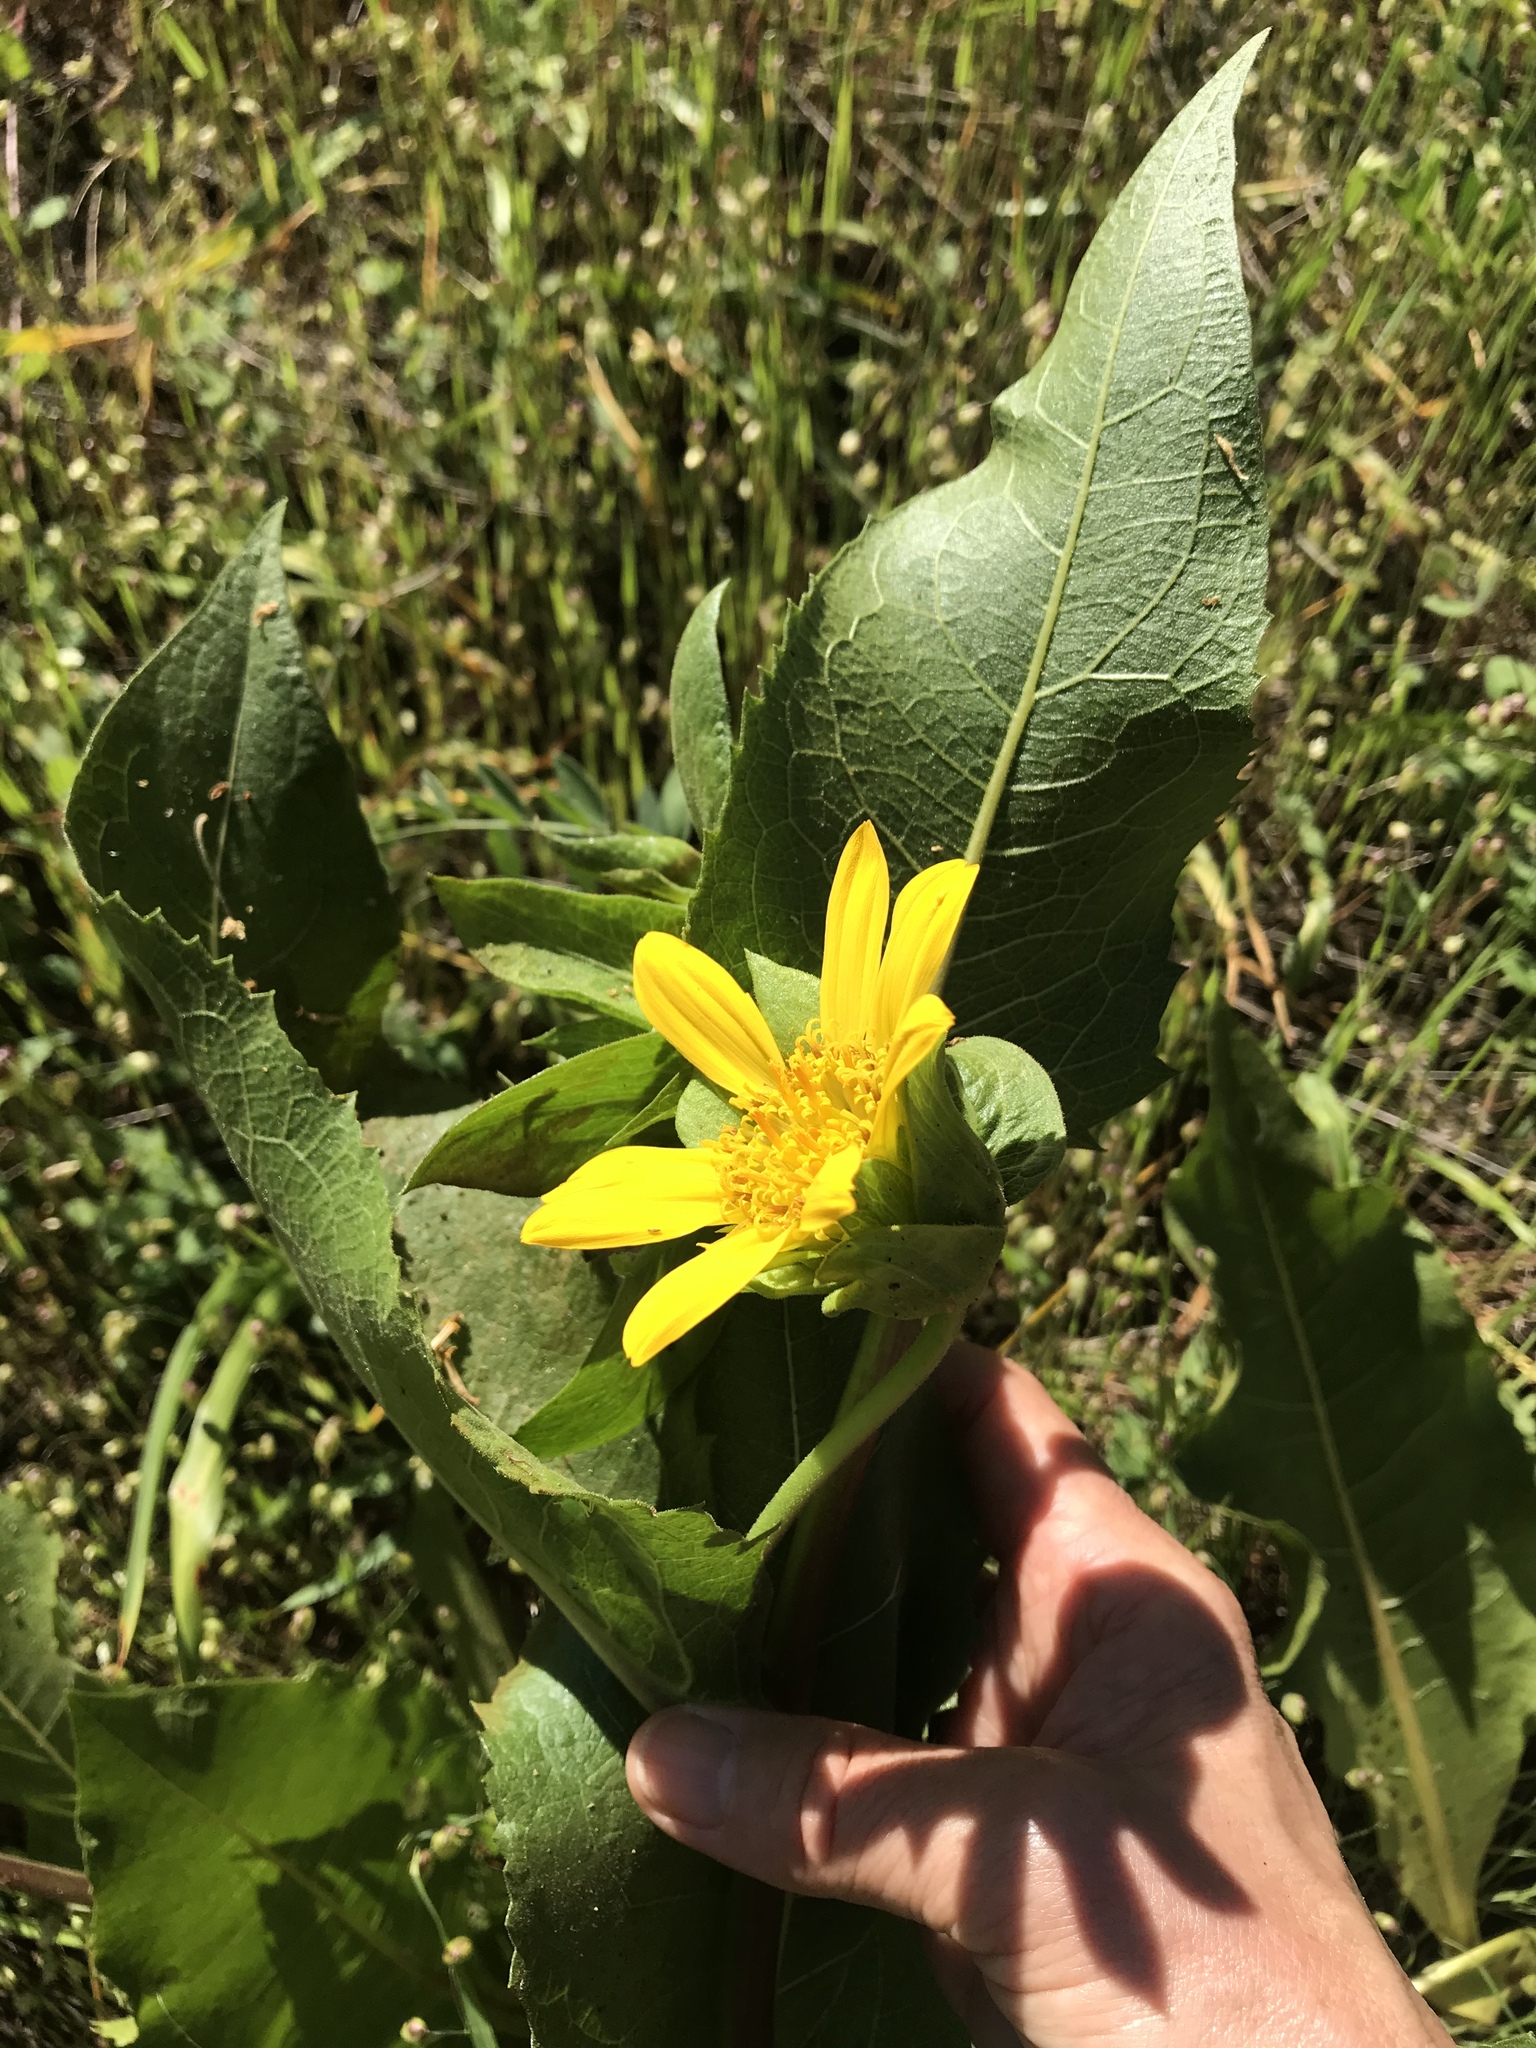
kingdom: Plantae
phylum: Tracheophyta
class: Magnoliopsida
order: Asterales
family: Asteraceae
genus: Wyethia
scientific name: Wyethia glabra
